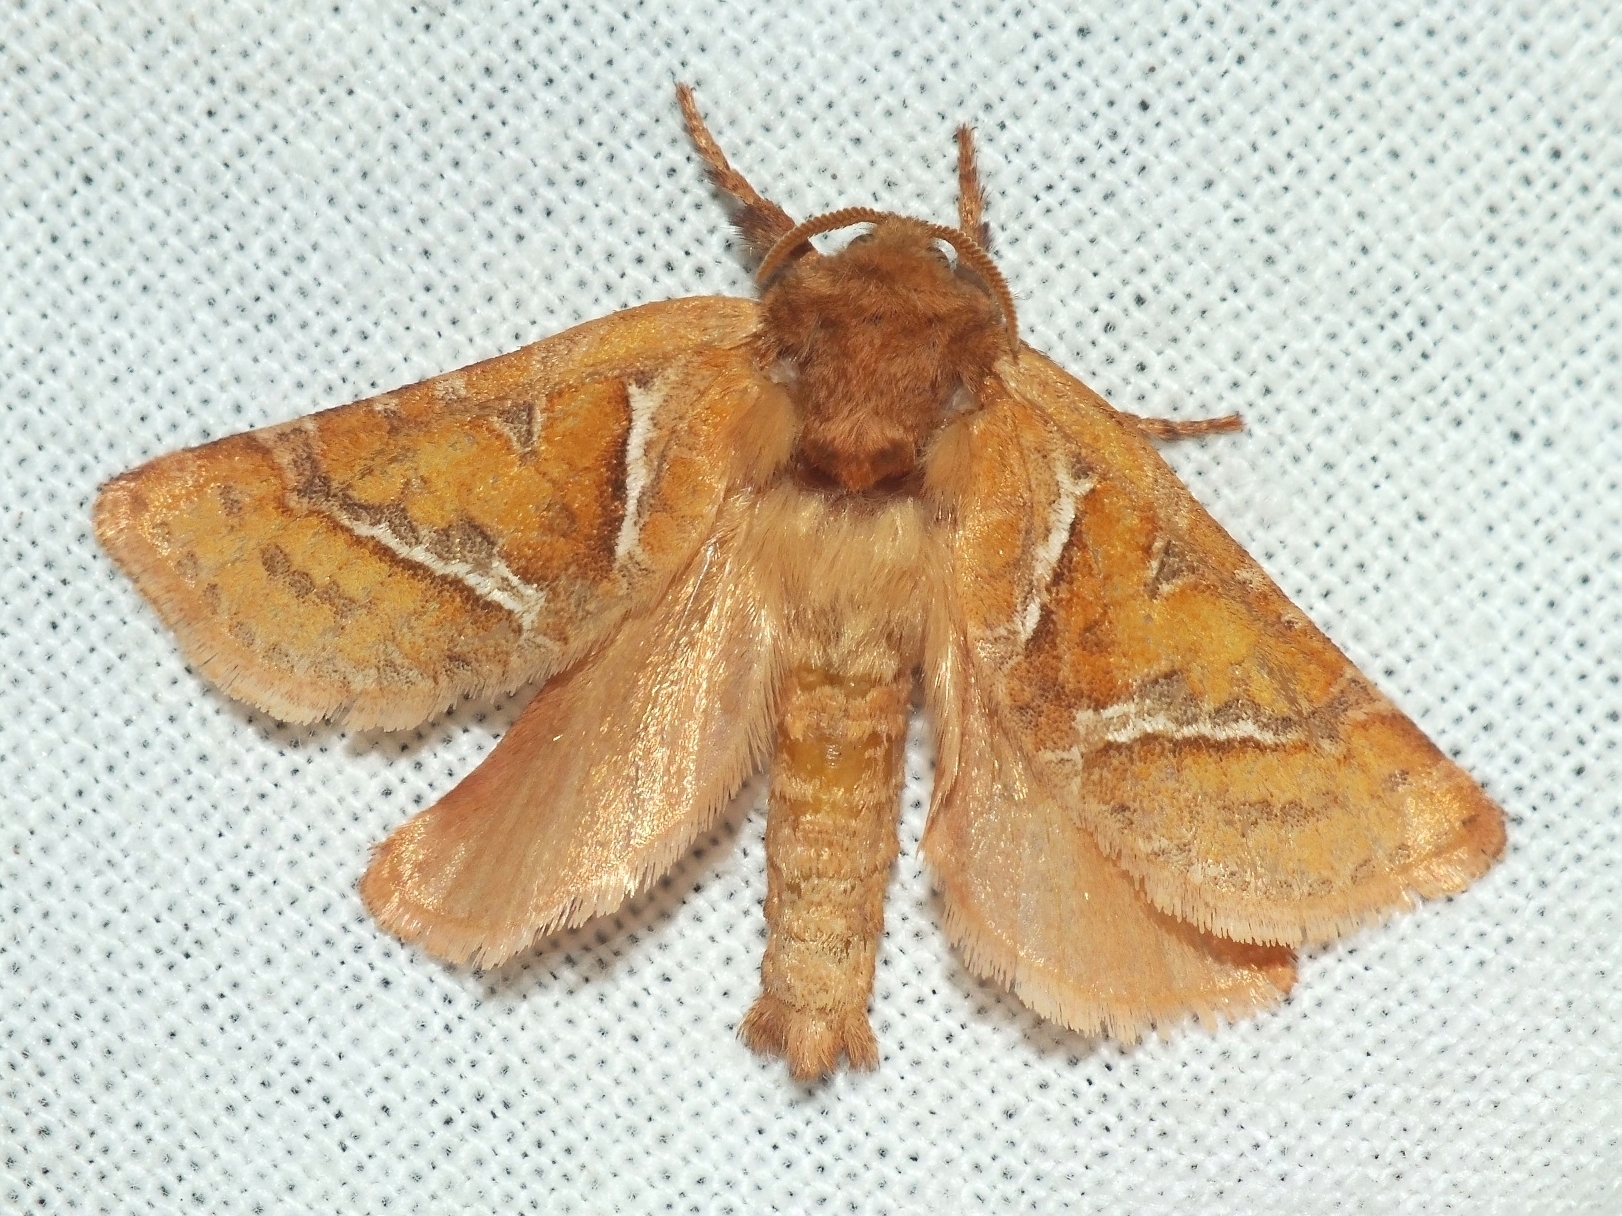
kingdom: Animalia
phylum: Arthropoda
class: Insecta
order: Lepidoptera
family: Hepialidae
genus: Triodia
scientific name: Triodia sylvina
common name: Orange swift
